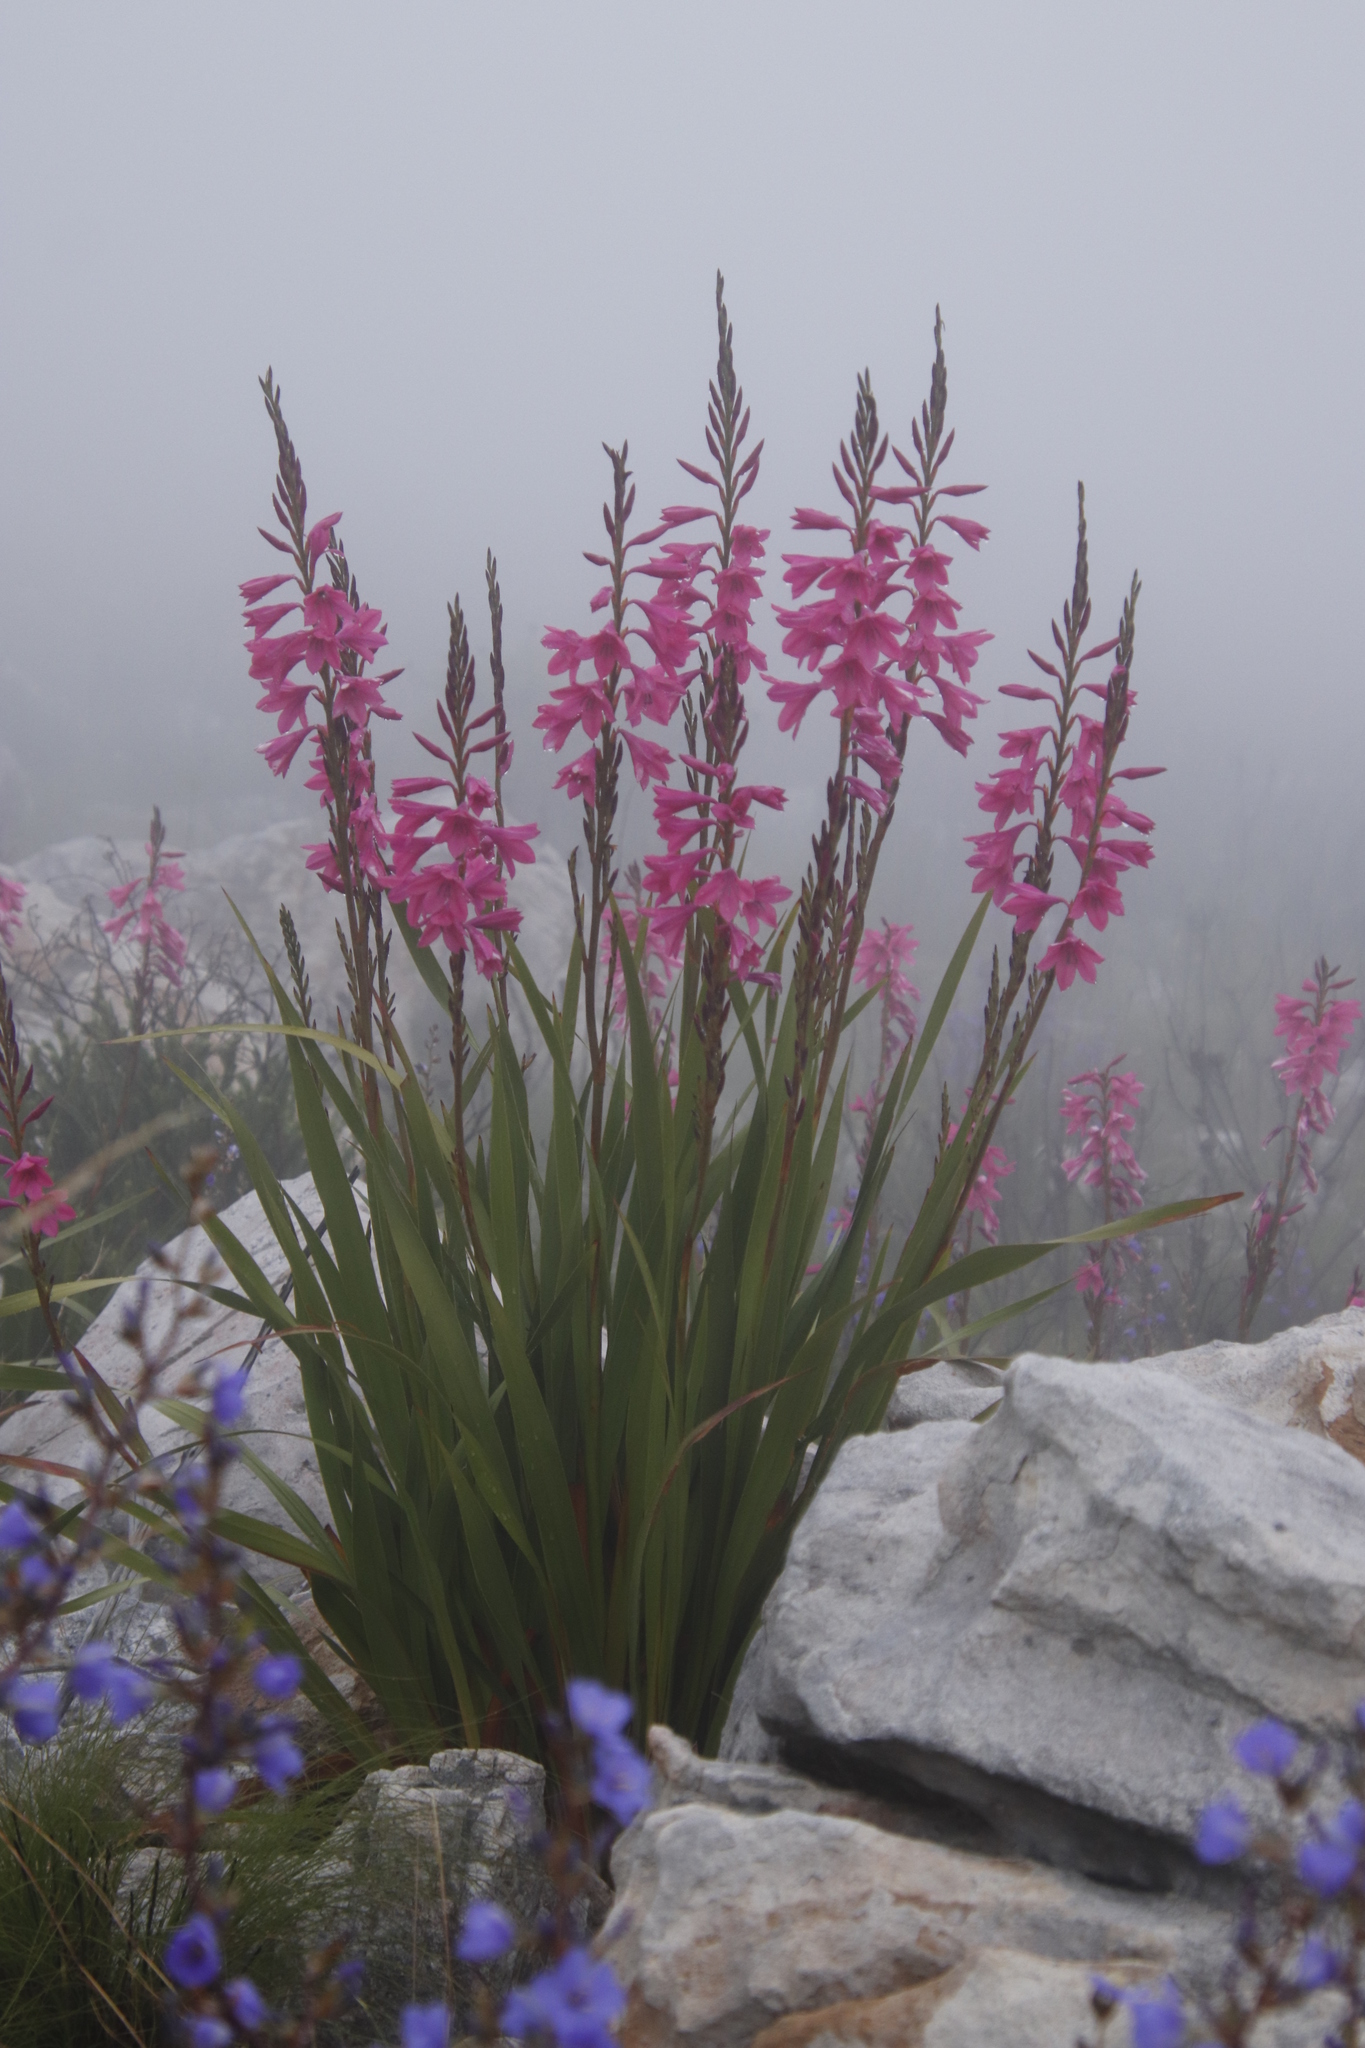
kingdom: Plantae
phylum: Tracheophyta
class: Liliopsida
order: Asparagales
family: Iridaceae
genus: Watsonia
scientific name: Watsonia borbonica
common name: Bugle-lily
